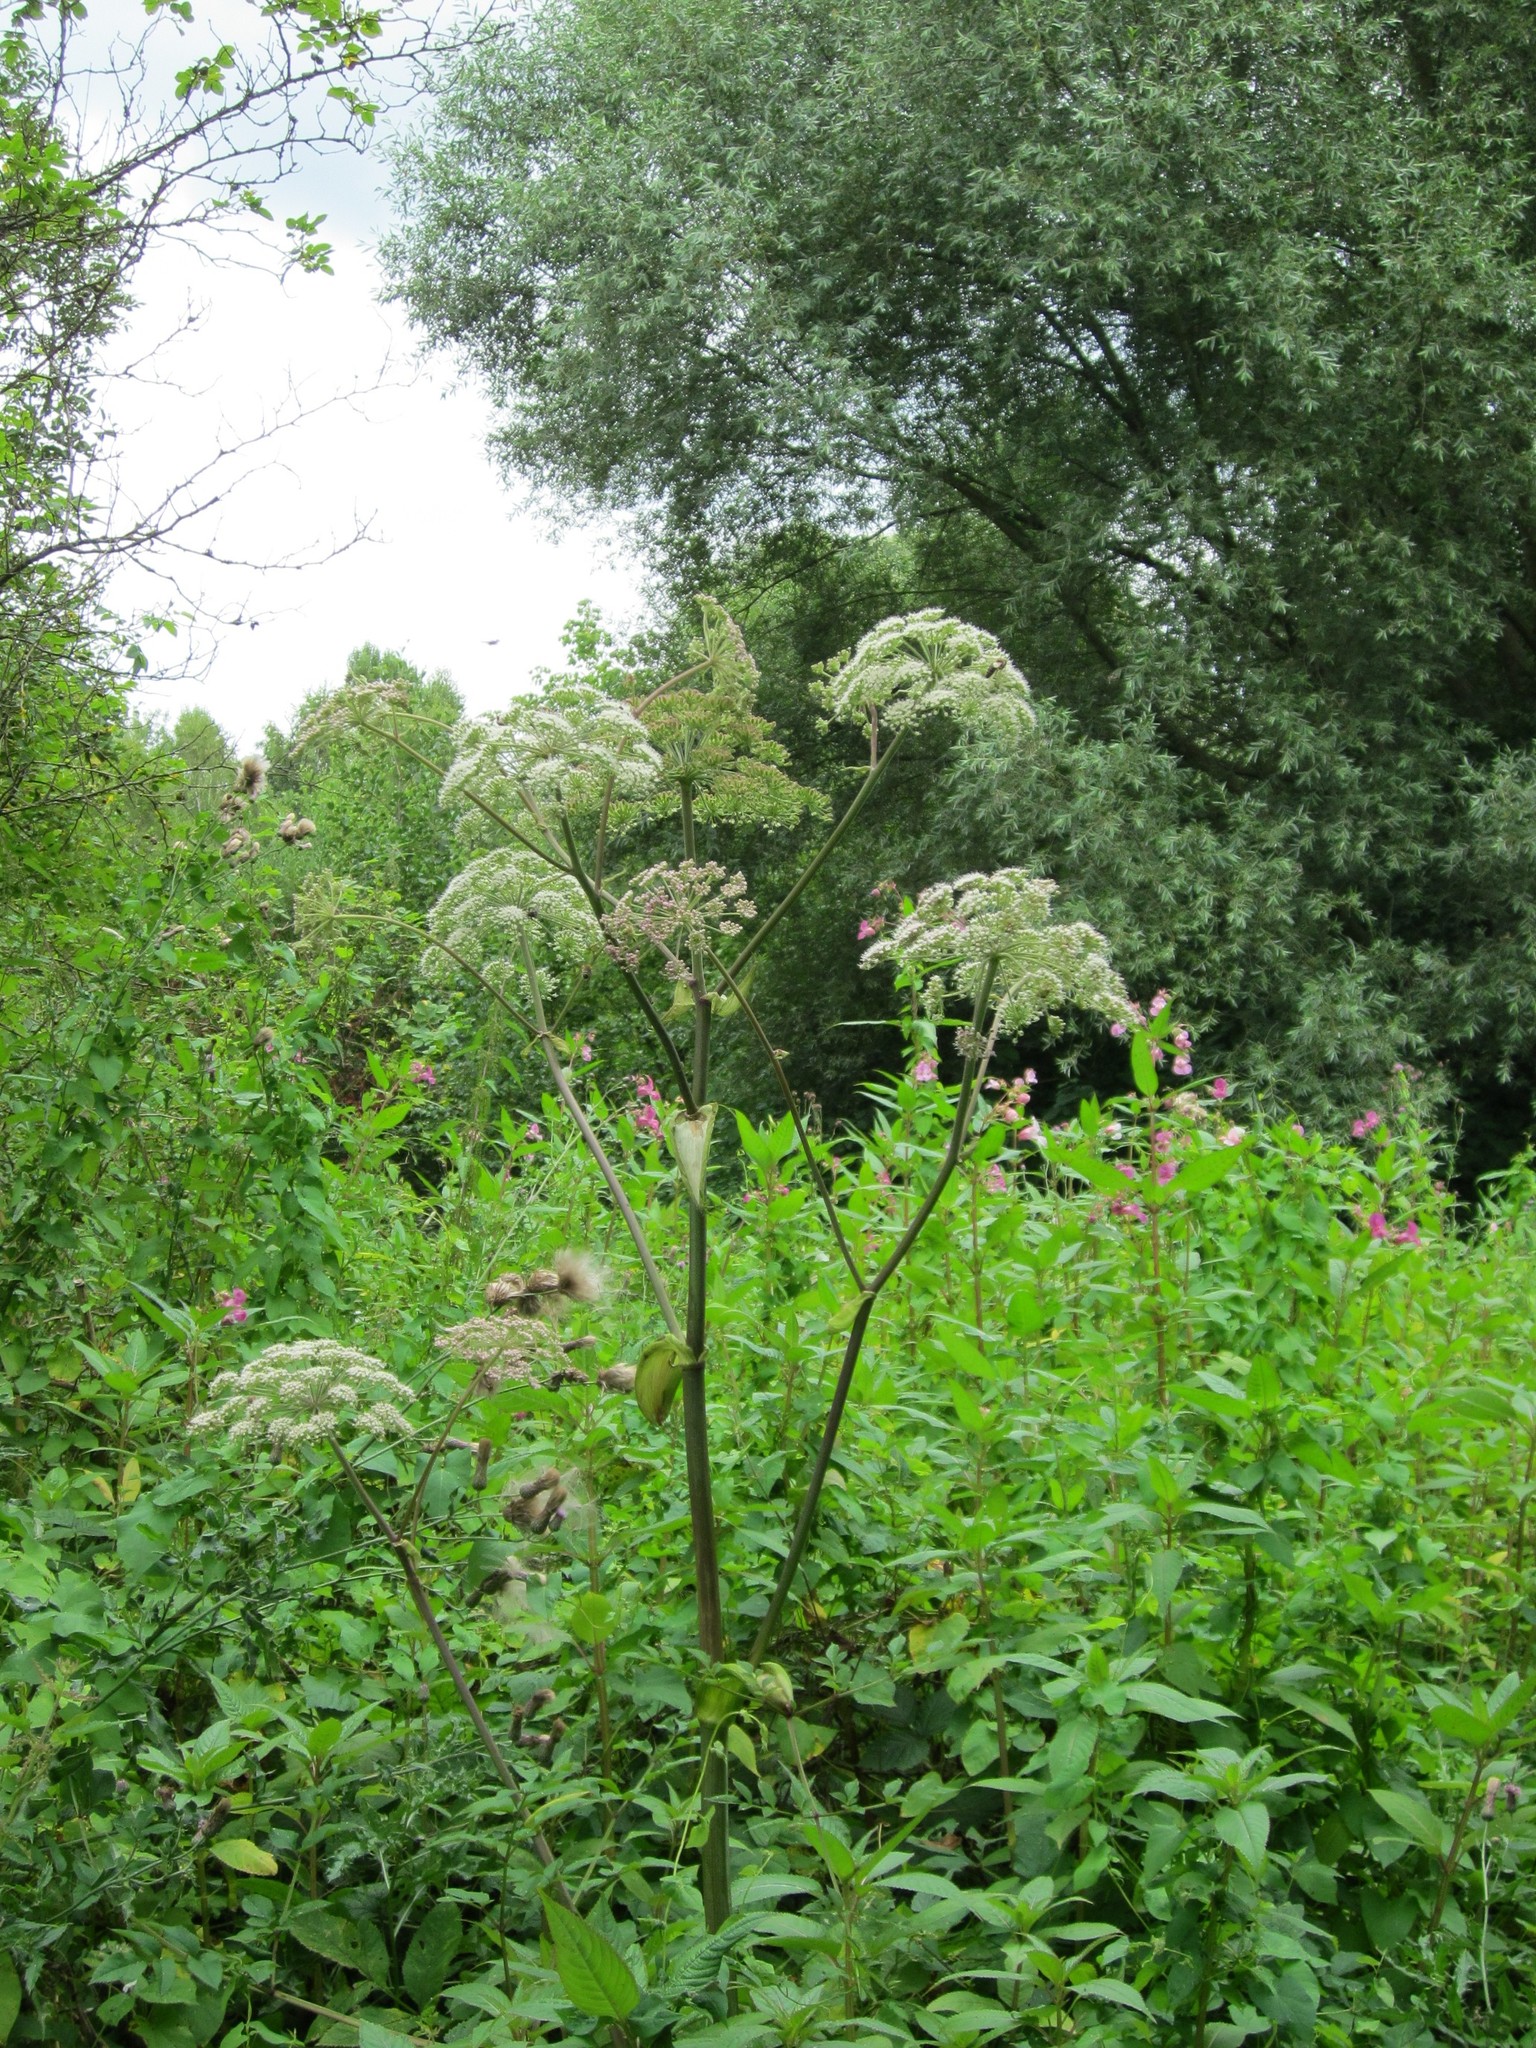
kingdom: Plantae
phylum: Tracheophyta
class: Magnoliopsida
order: Apiales
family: Apiaceae
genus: Angelica
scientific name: Angelica sylvestris
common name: Wild angelica
